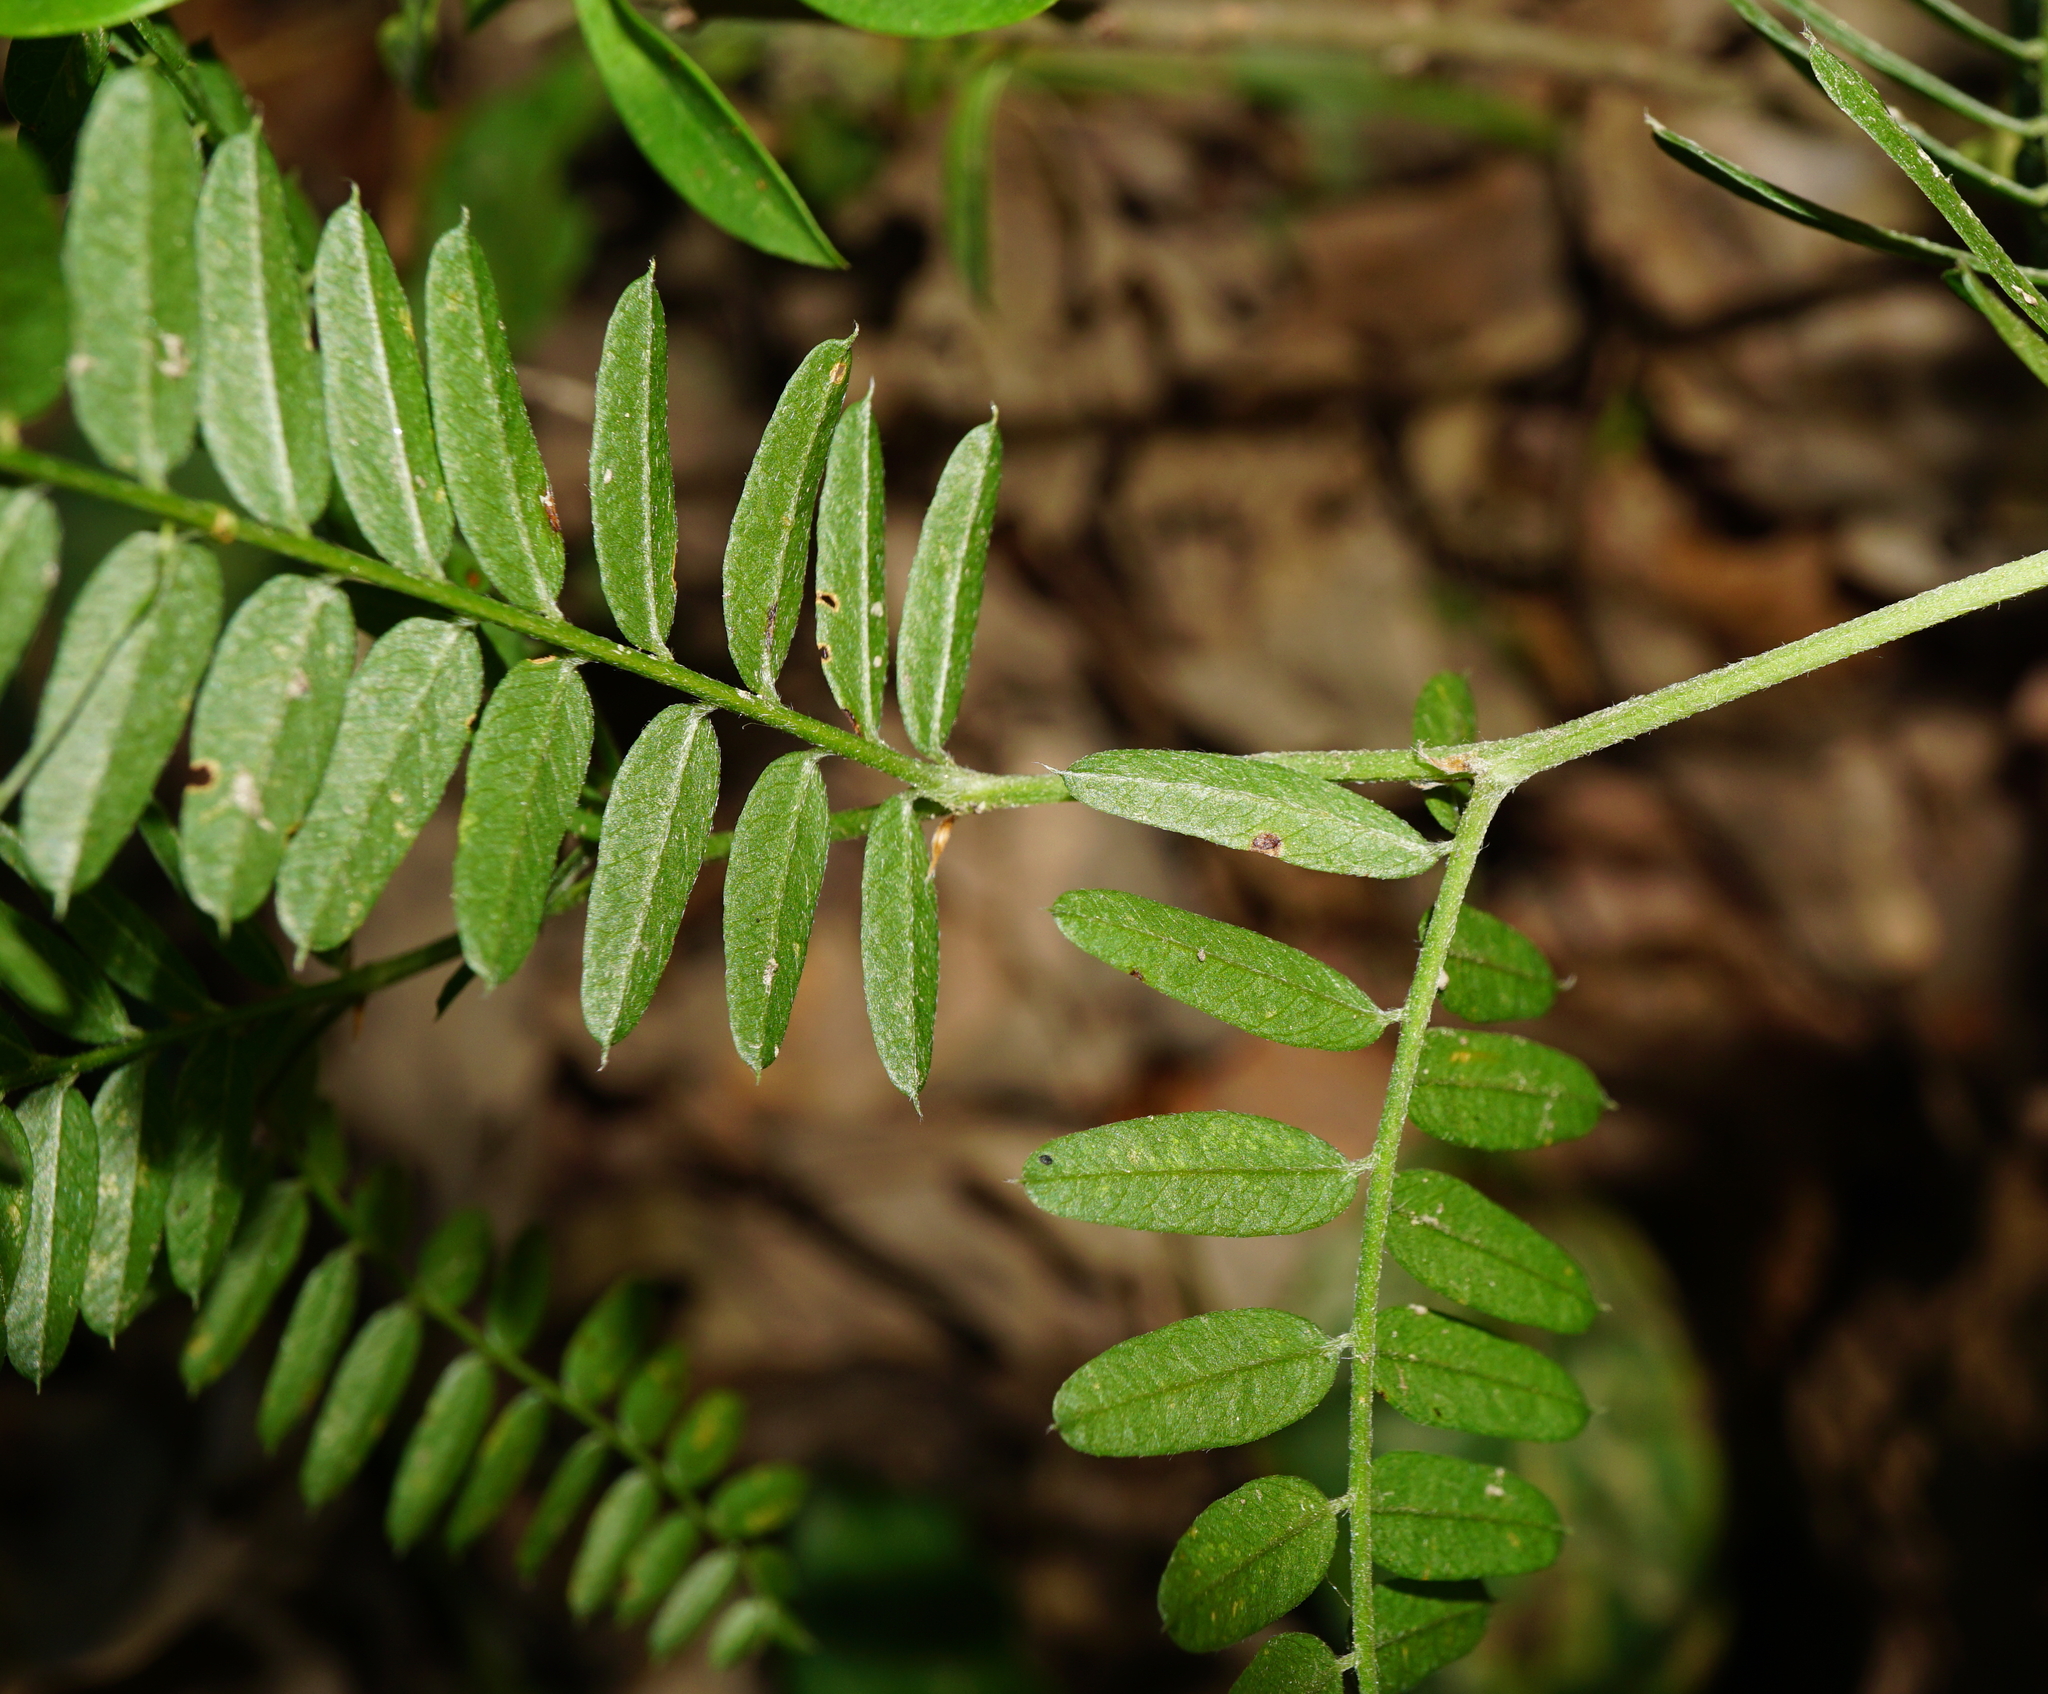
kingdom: Plantae
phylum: Tracheophyta
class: Magnoliopsida
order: Fabales
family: Fabaceae
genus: Vicia
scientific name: Vicia cassubica
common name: Danzig vetch
